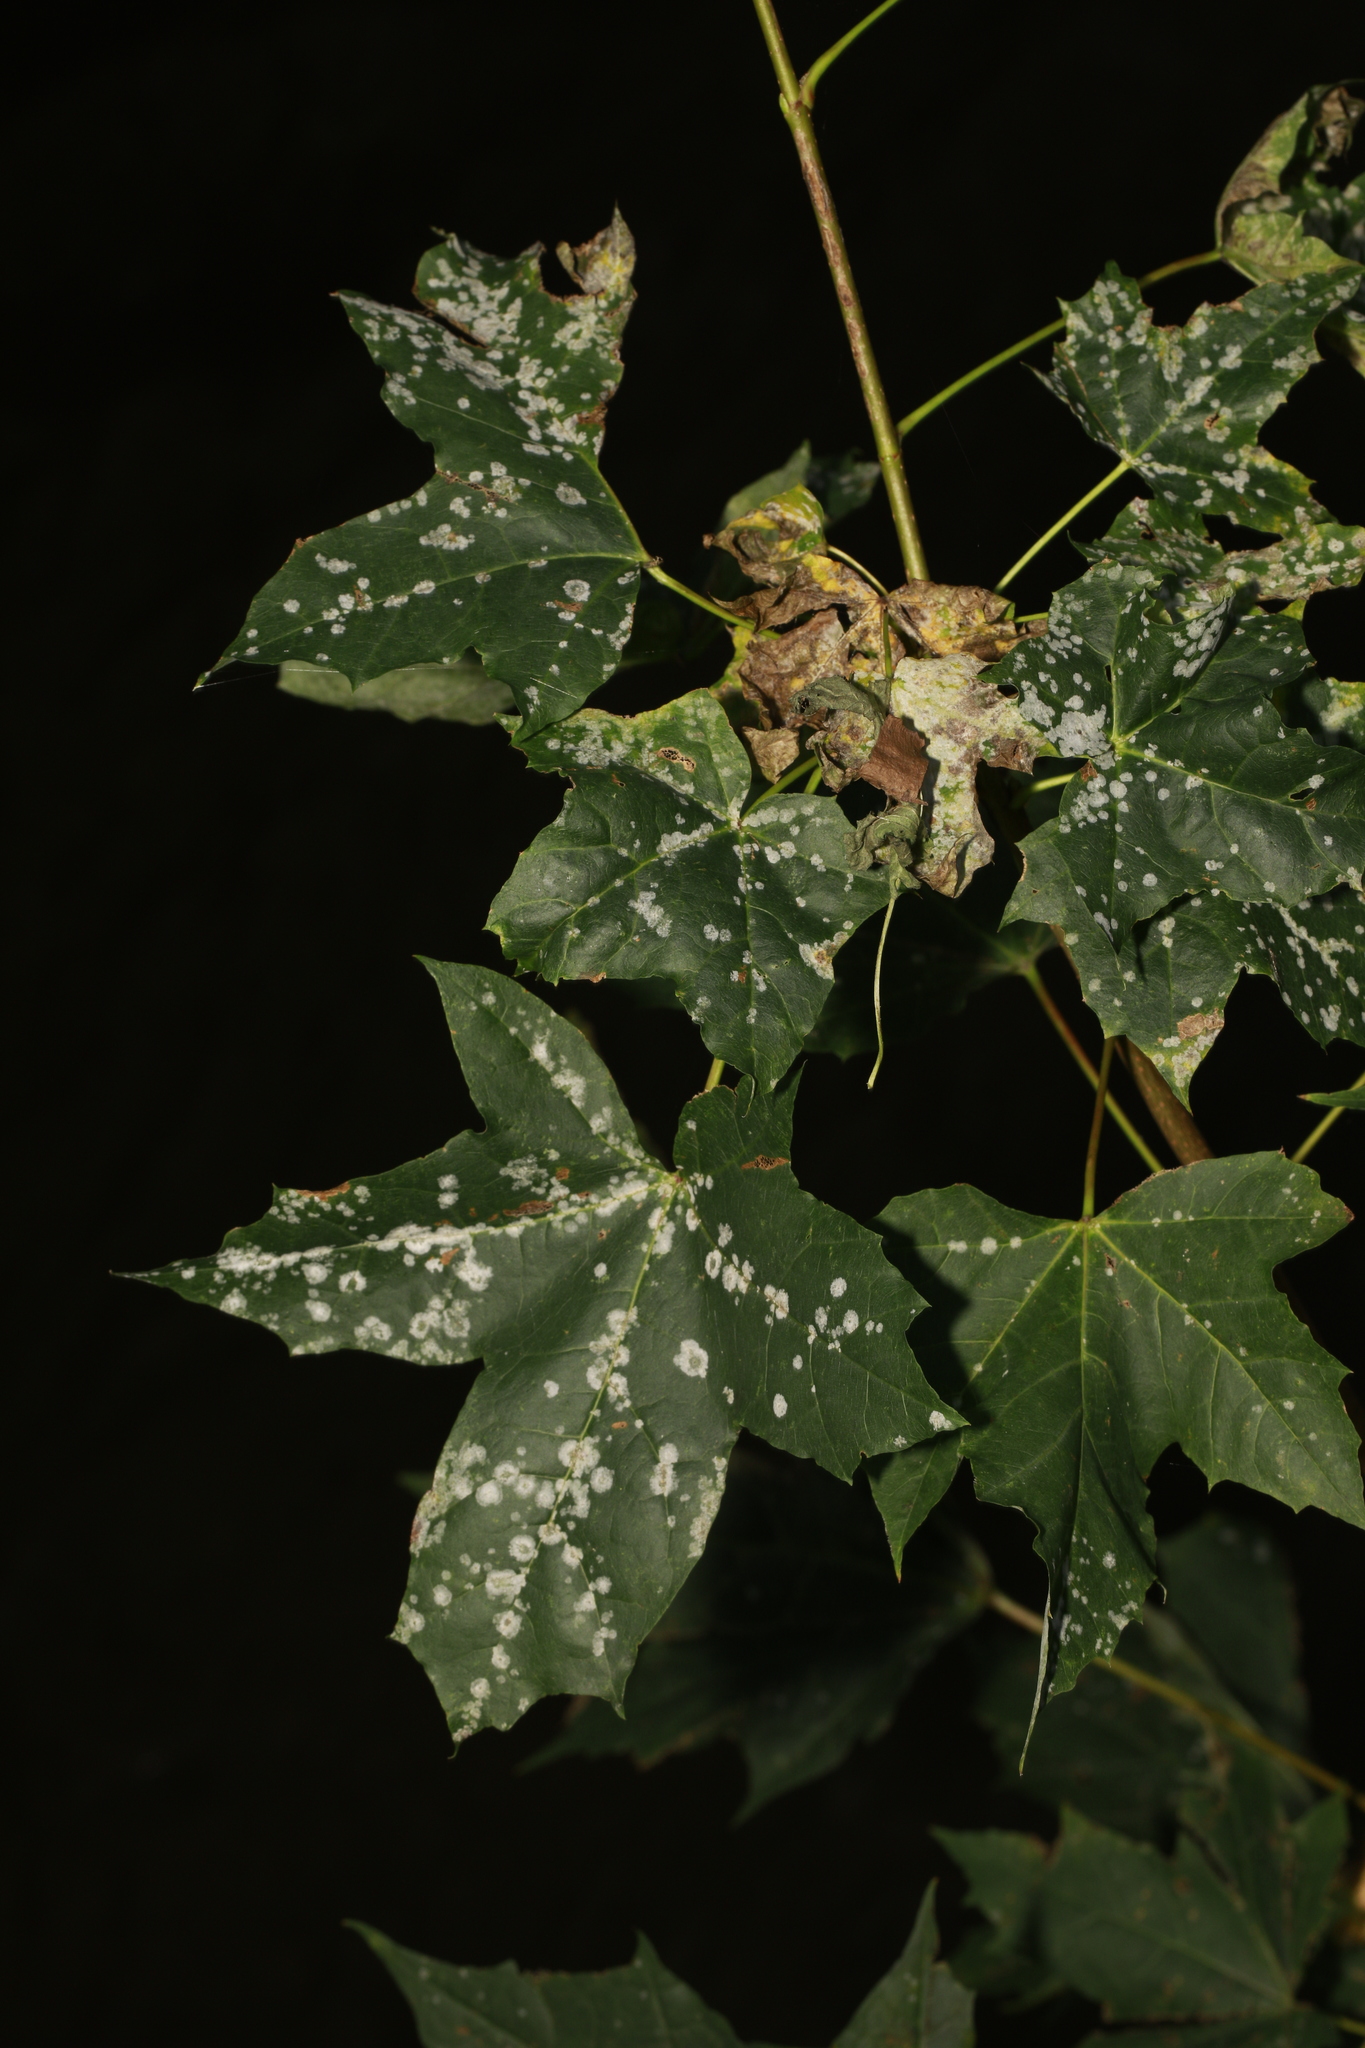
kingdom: Plantae
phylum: Tracheophyta
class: Magnoliopsida
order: Sapindales
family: Sapindaceae
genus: Acer
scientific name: Acer platanoides
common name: Norway maple
